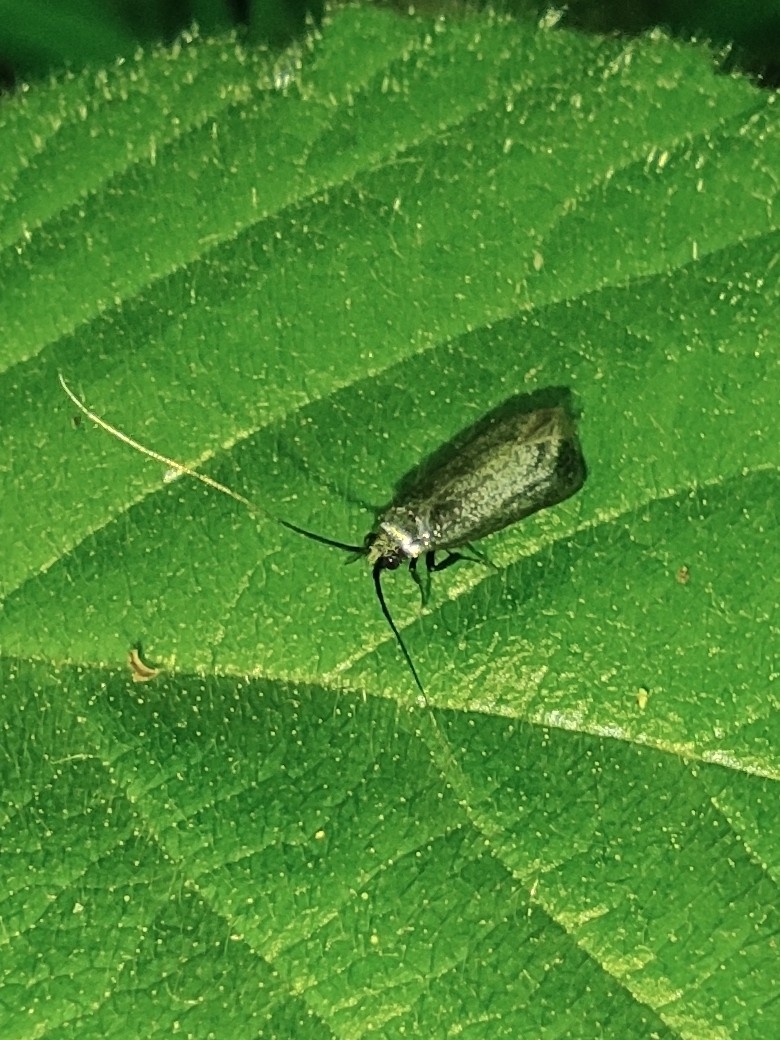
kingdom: Animalia
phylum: Arthropoda
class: Insecta
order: Lepidoptera
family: Adelidae
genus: Adela
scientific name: Adela viridella
